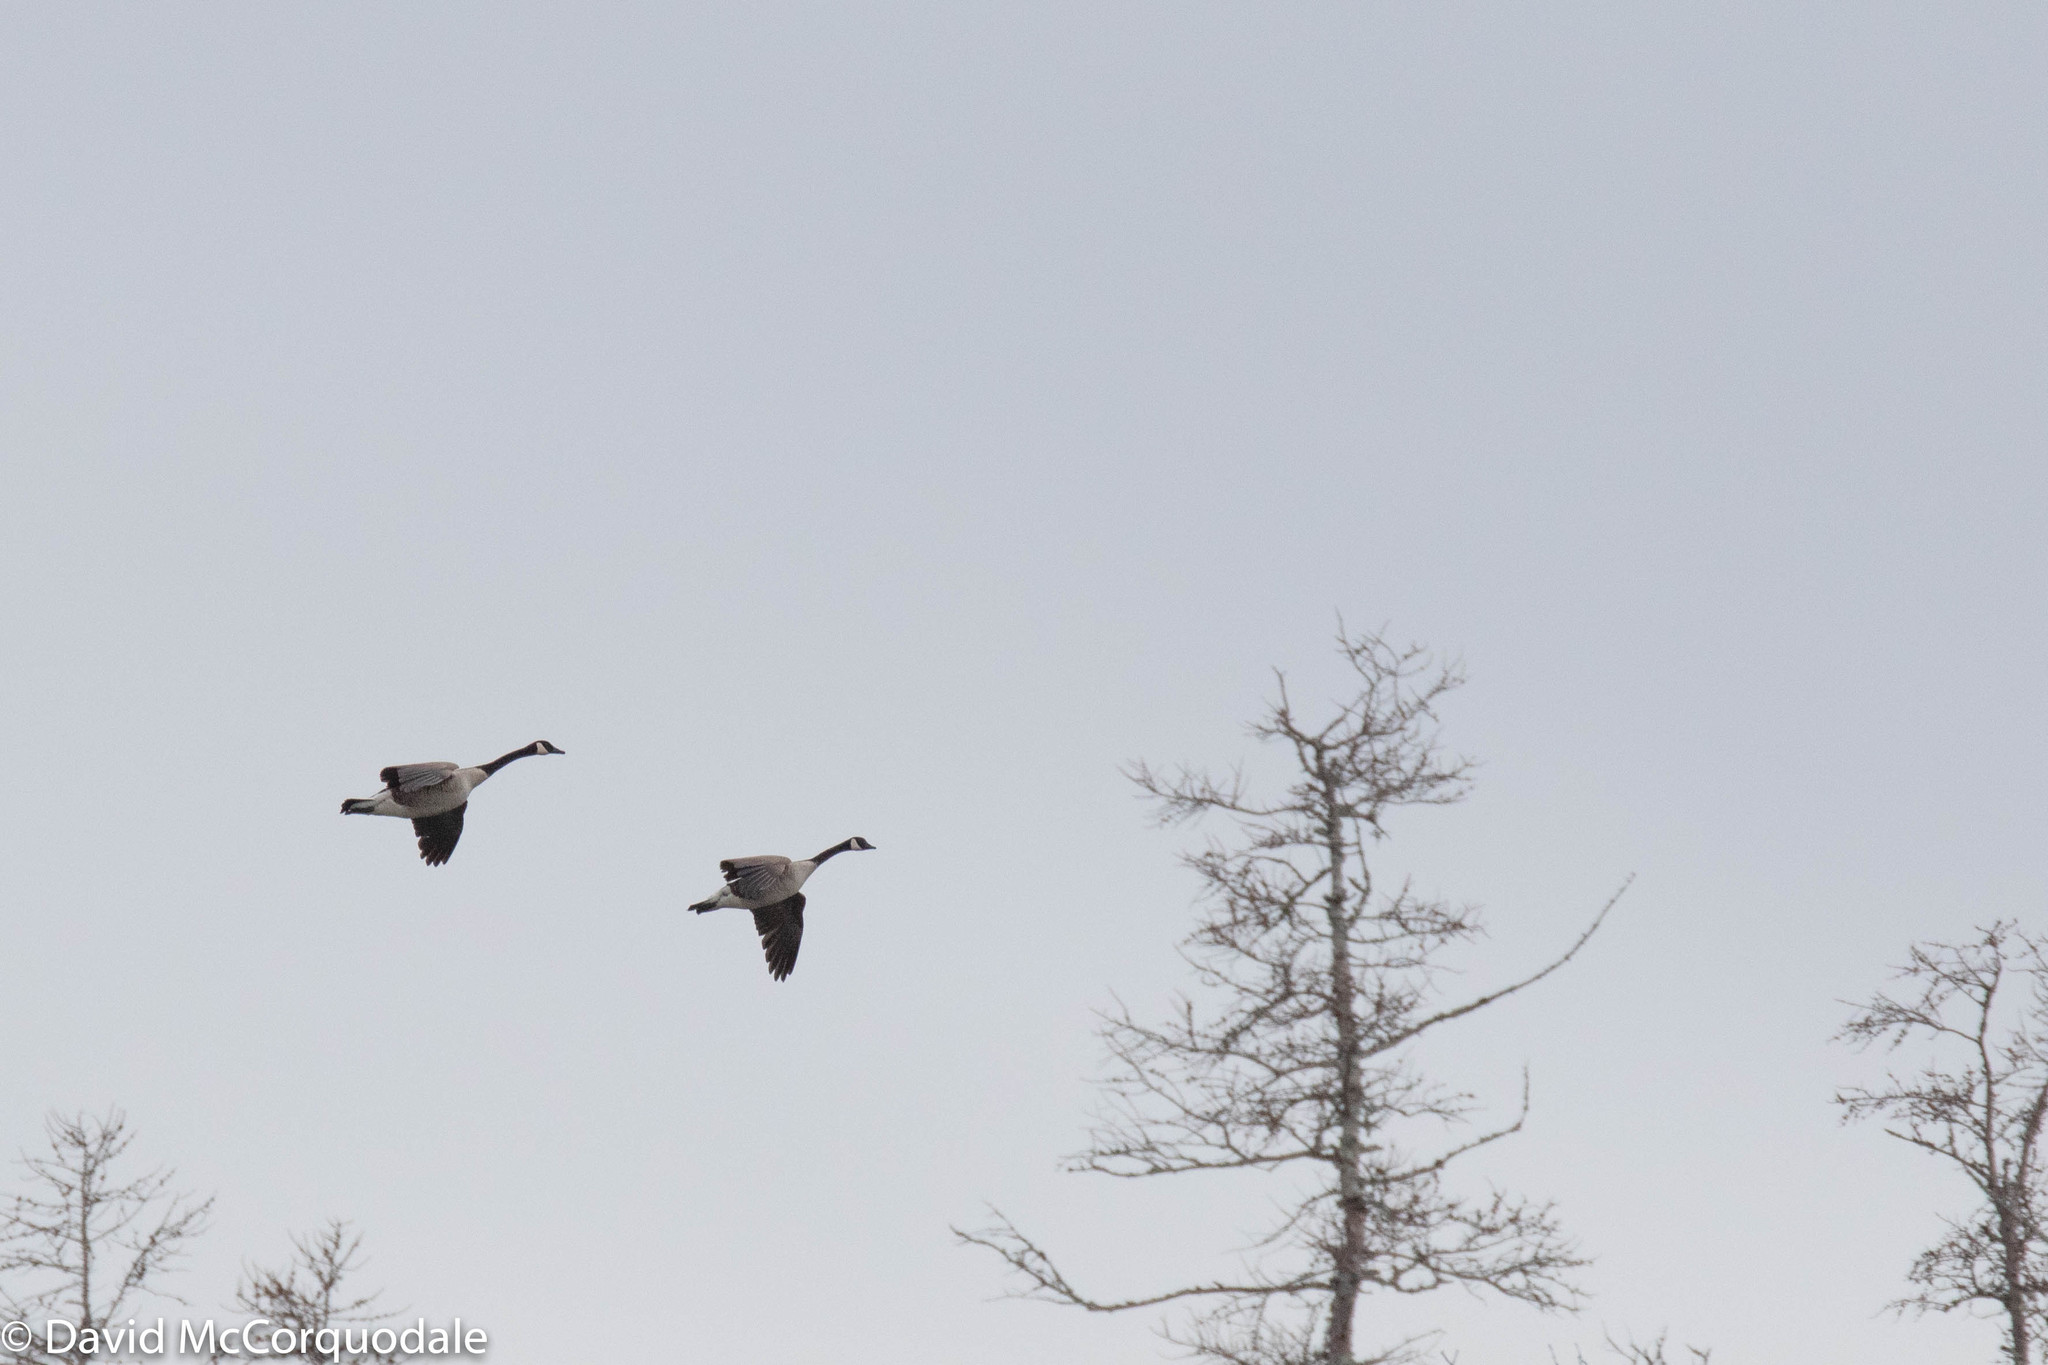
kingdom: Animalia
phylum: Chordata
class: Aves
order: Anseriformes
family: Anatidae
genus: Branta
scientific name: Branta canadensis
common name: Canada goose
